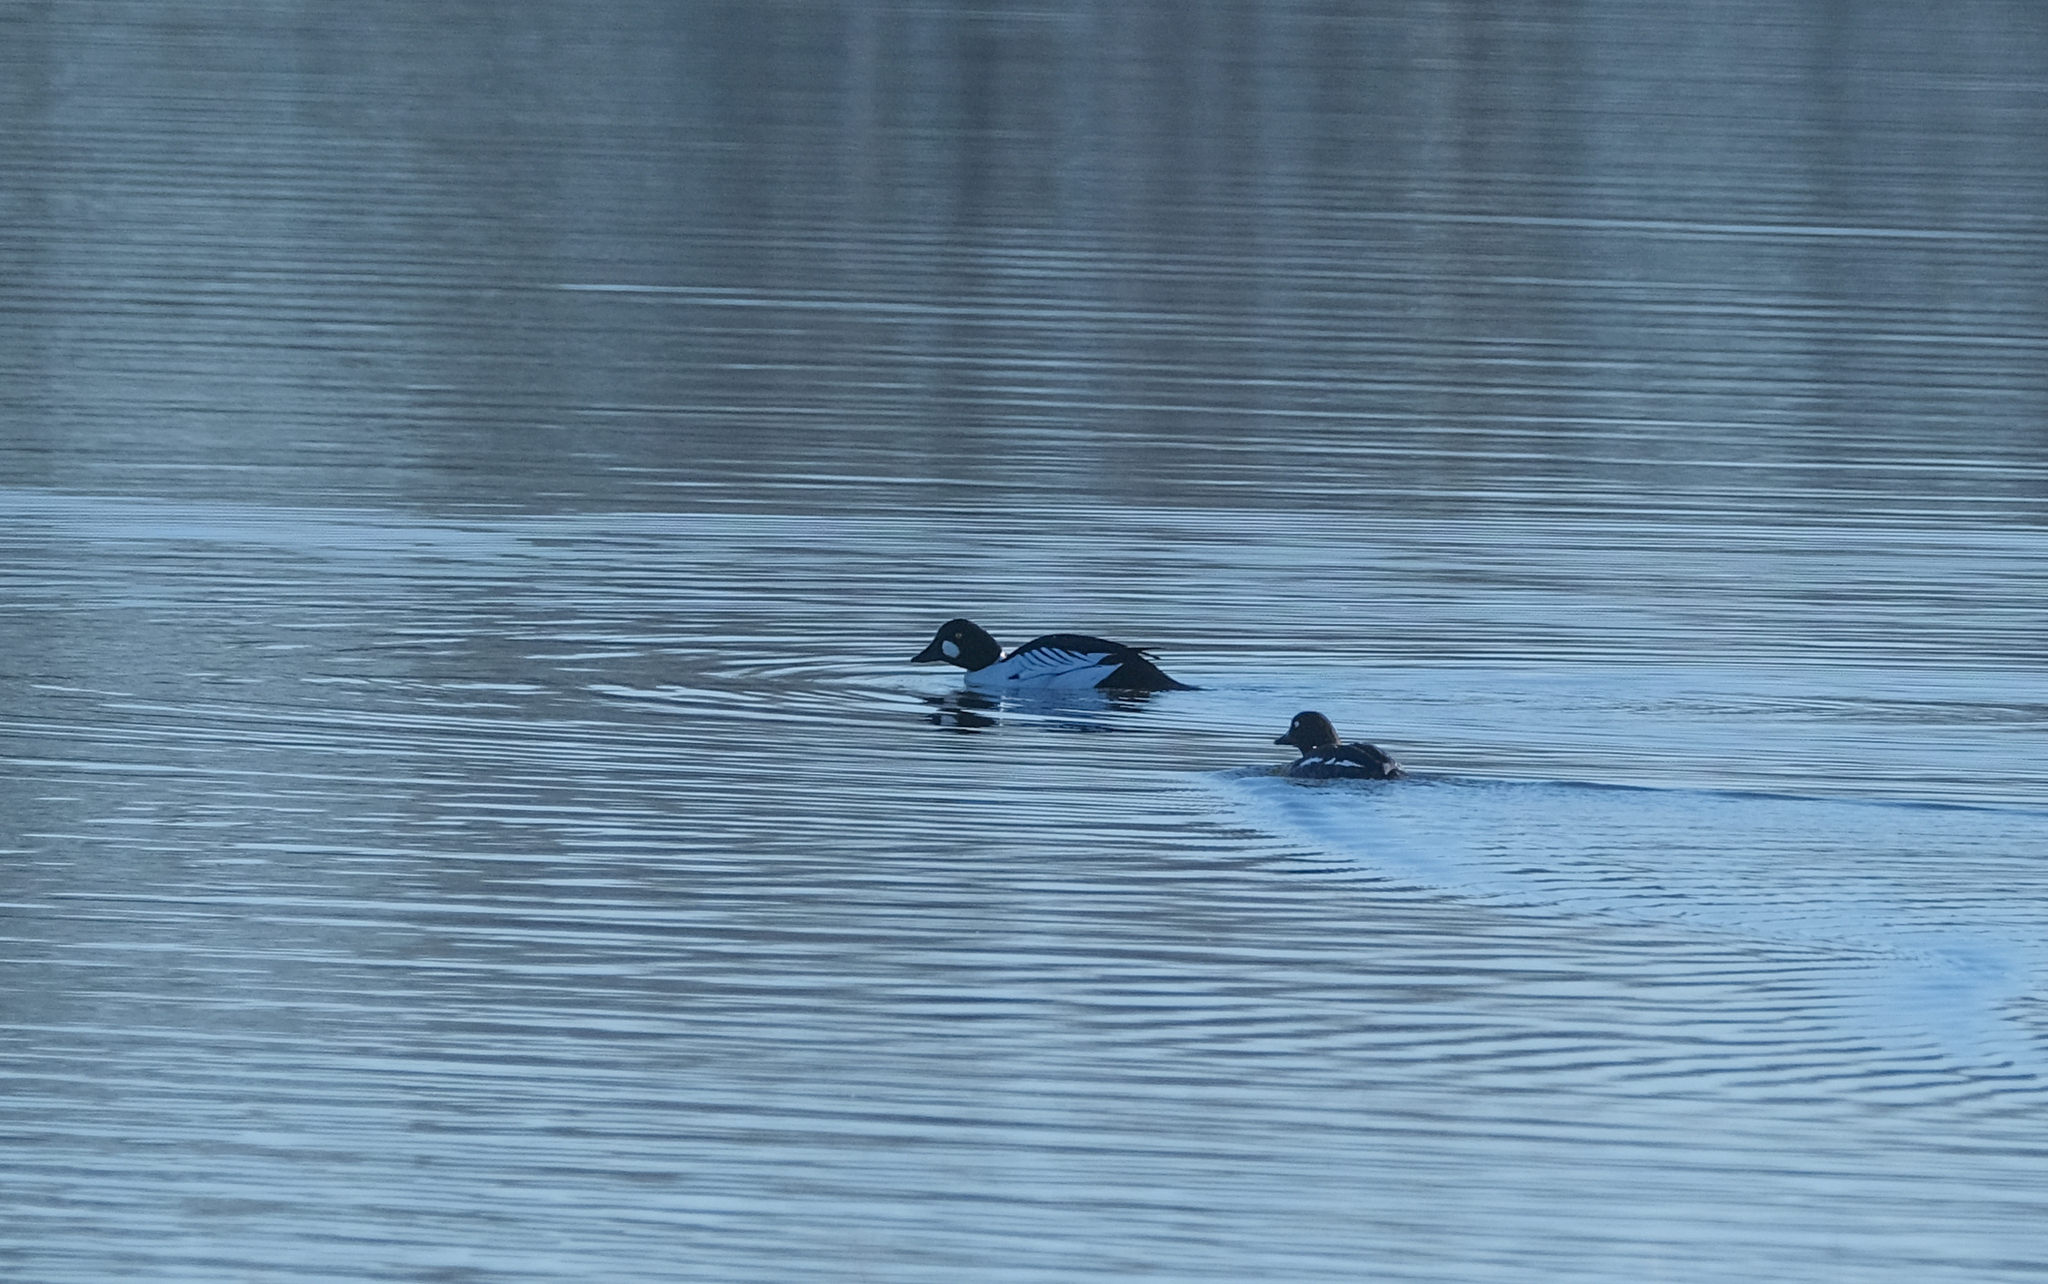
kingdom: Animalia
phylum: Chordata
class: Aves
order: Anseriformes
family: Anatidae
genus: Bucephala
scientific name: Bucephala clangula
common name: Common goldeneye
